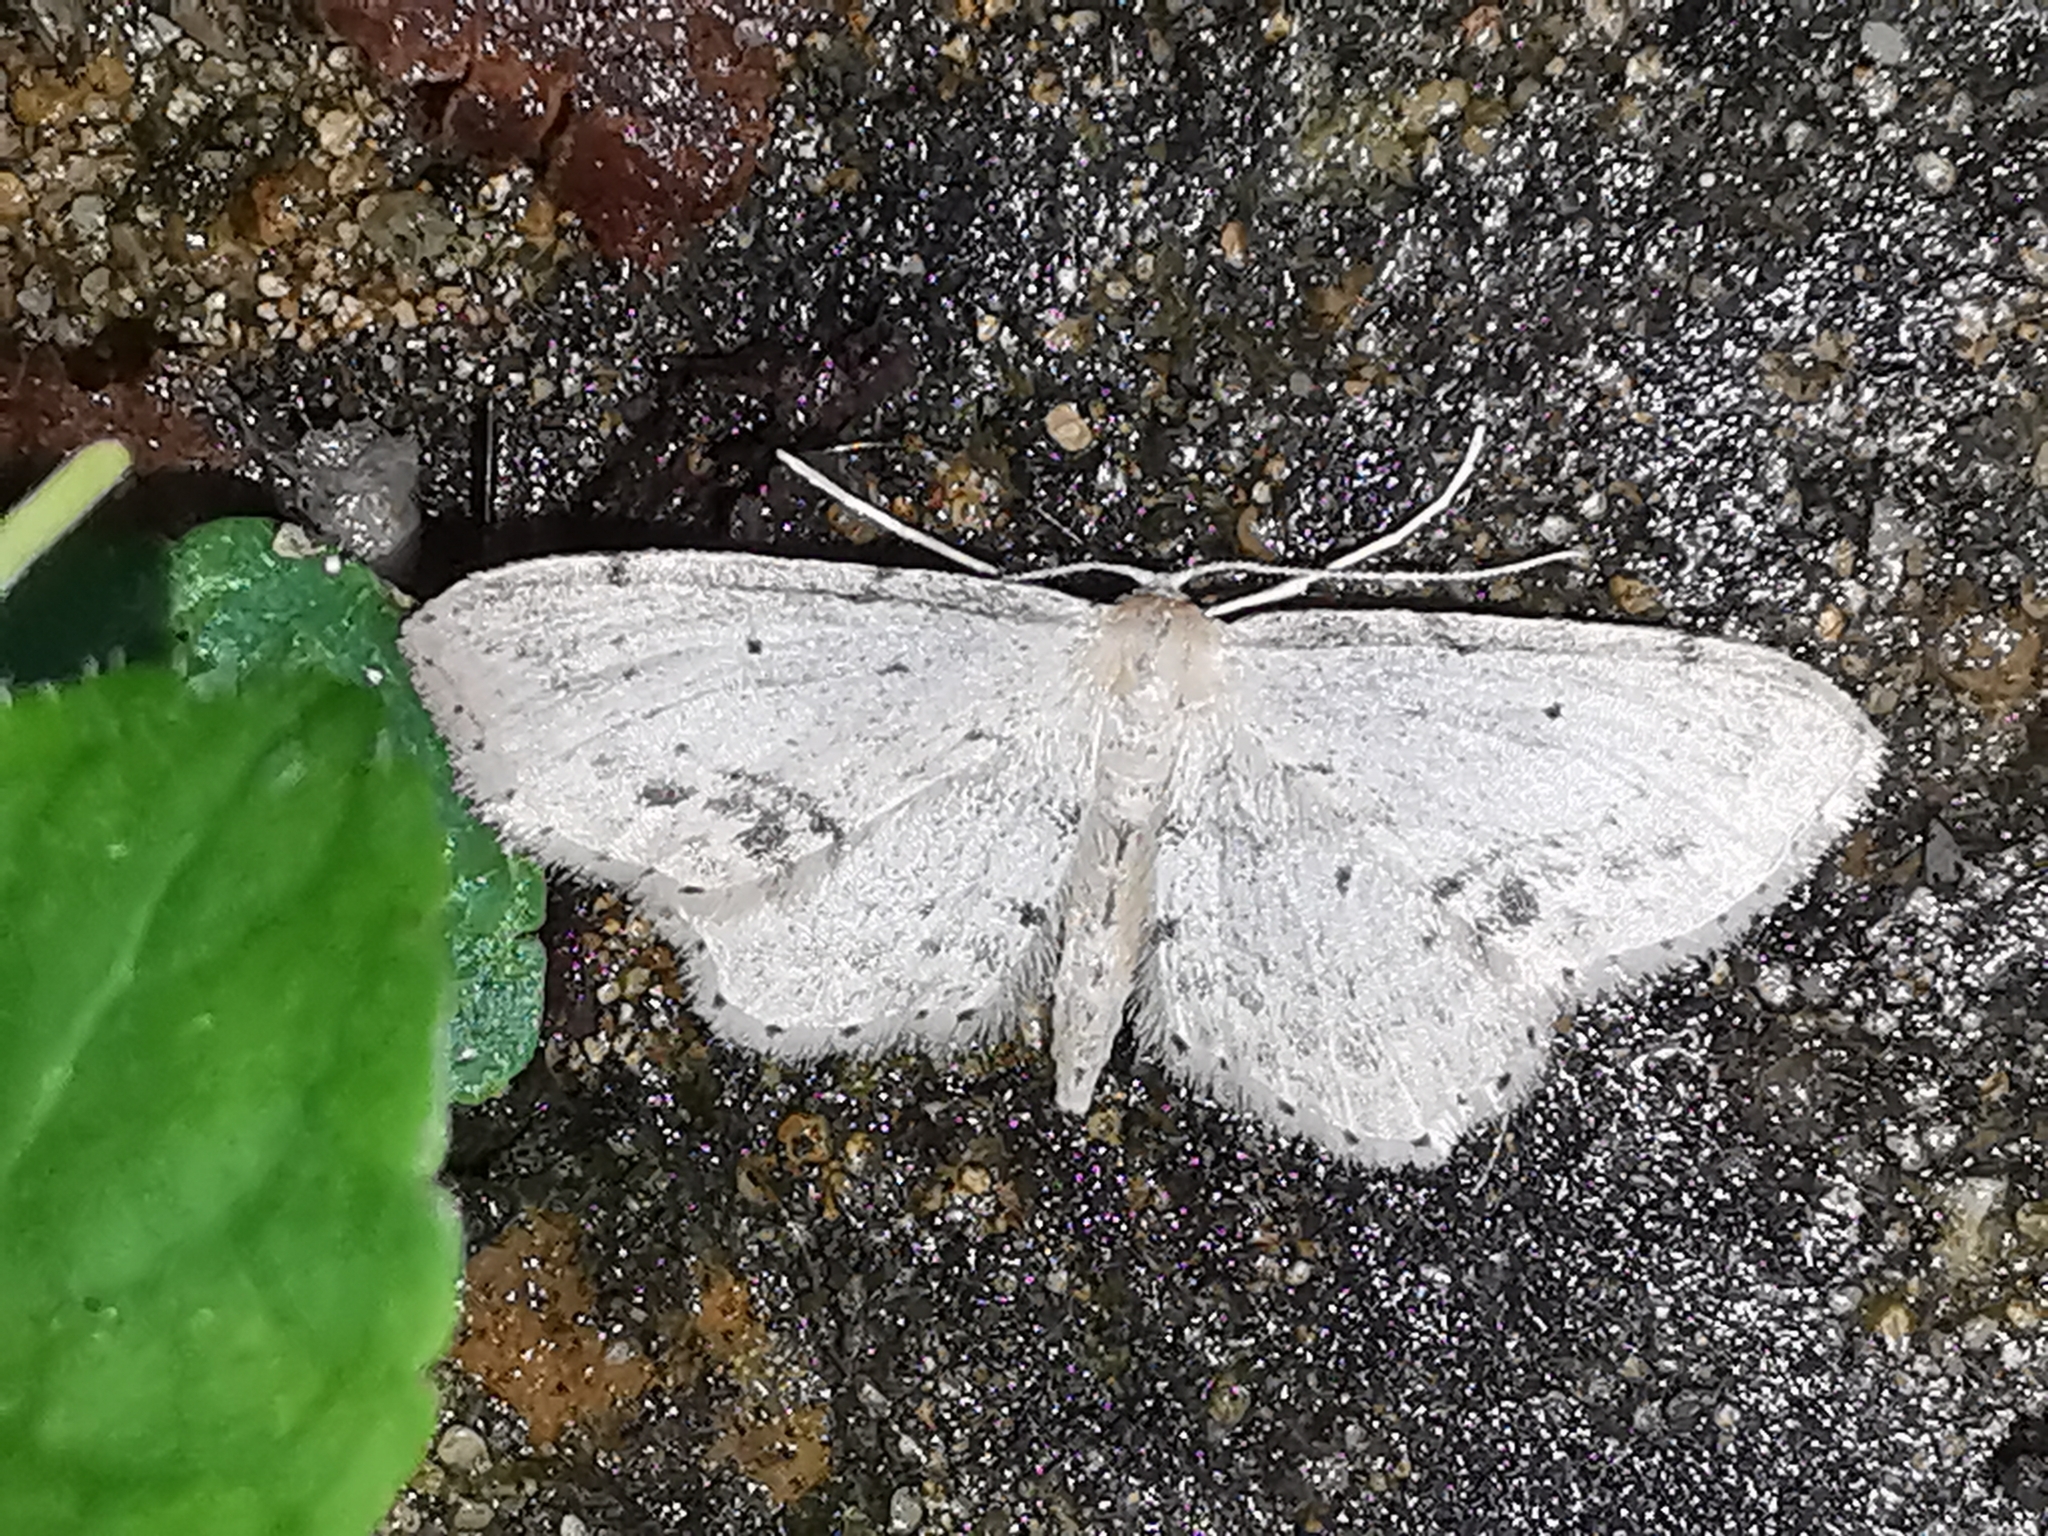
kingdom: Animalia
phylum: Arthropoda
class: Insecta
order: Lepidoptera
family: Geometridae
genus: Idaea
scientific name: Idaea dimidiata
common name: Single-dotted wave
